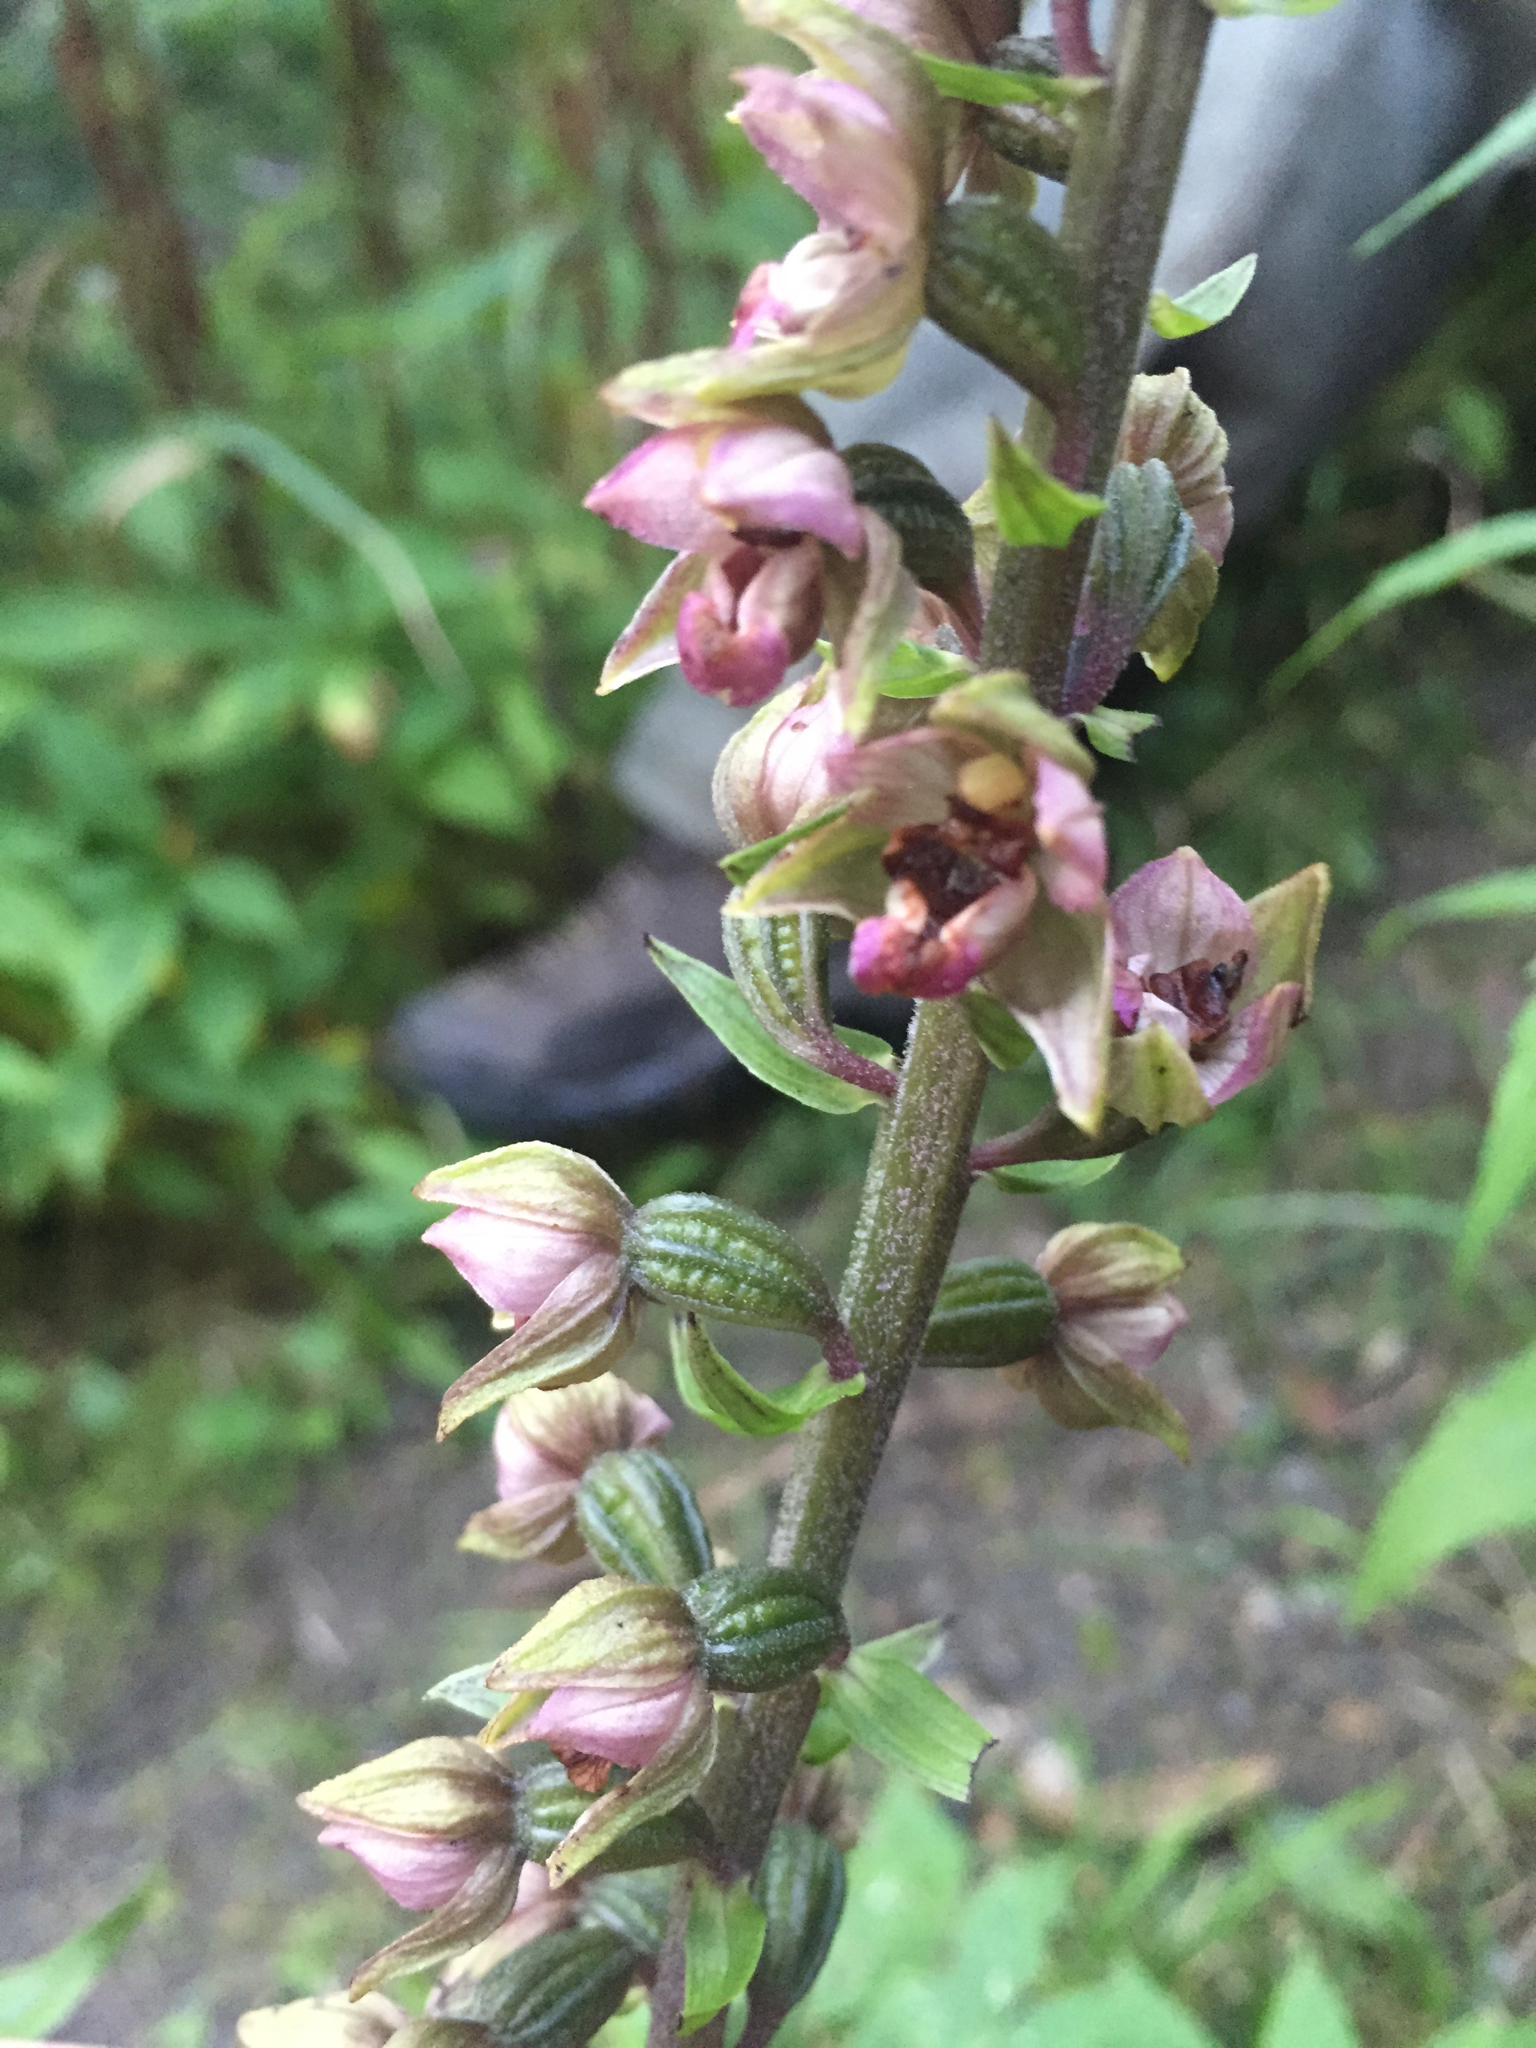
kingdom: Plantae
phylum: Tracheophyta
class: Liliopsida
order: Asparagales
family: Orchidaceae
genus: Epipactis
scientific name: Epipactis helleborine
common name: Broad-leaved helleborine
